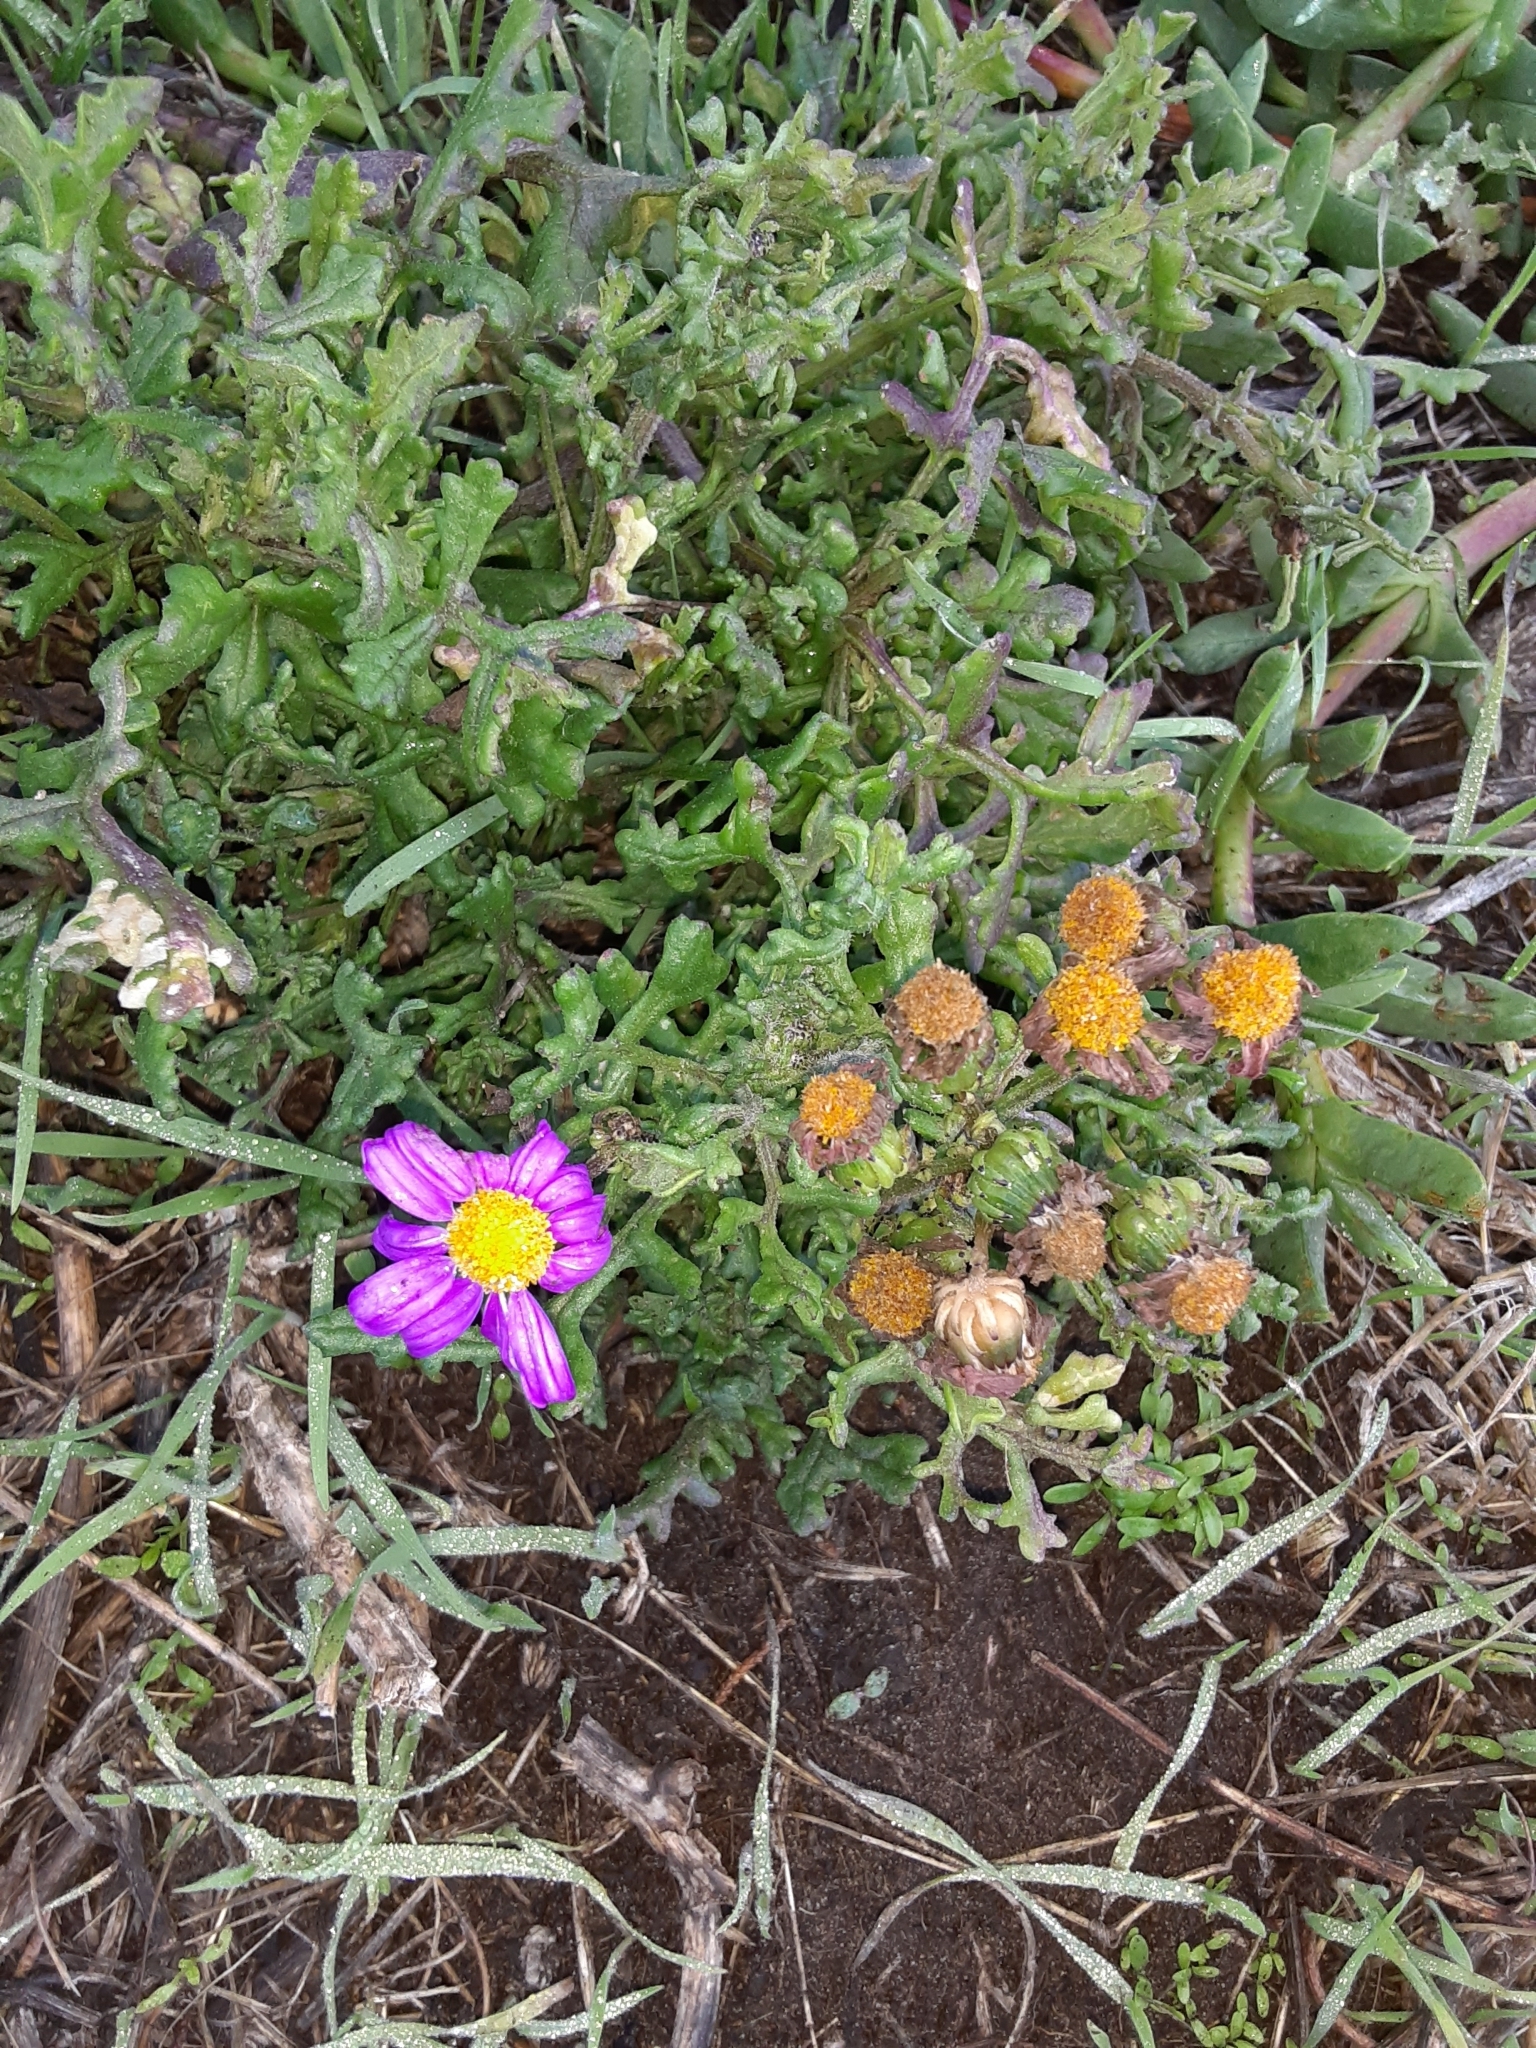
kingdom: Plantae
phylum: Tracheophyta
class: Magnoliopsida
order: Asterales
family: Asteraceae
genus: Senecio
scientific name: Senecio elegans
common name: Purple groundsel
